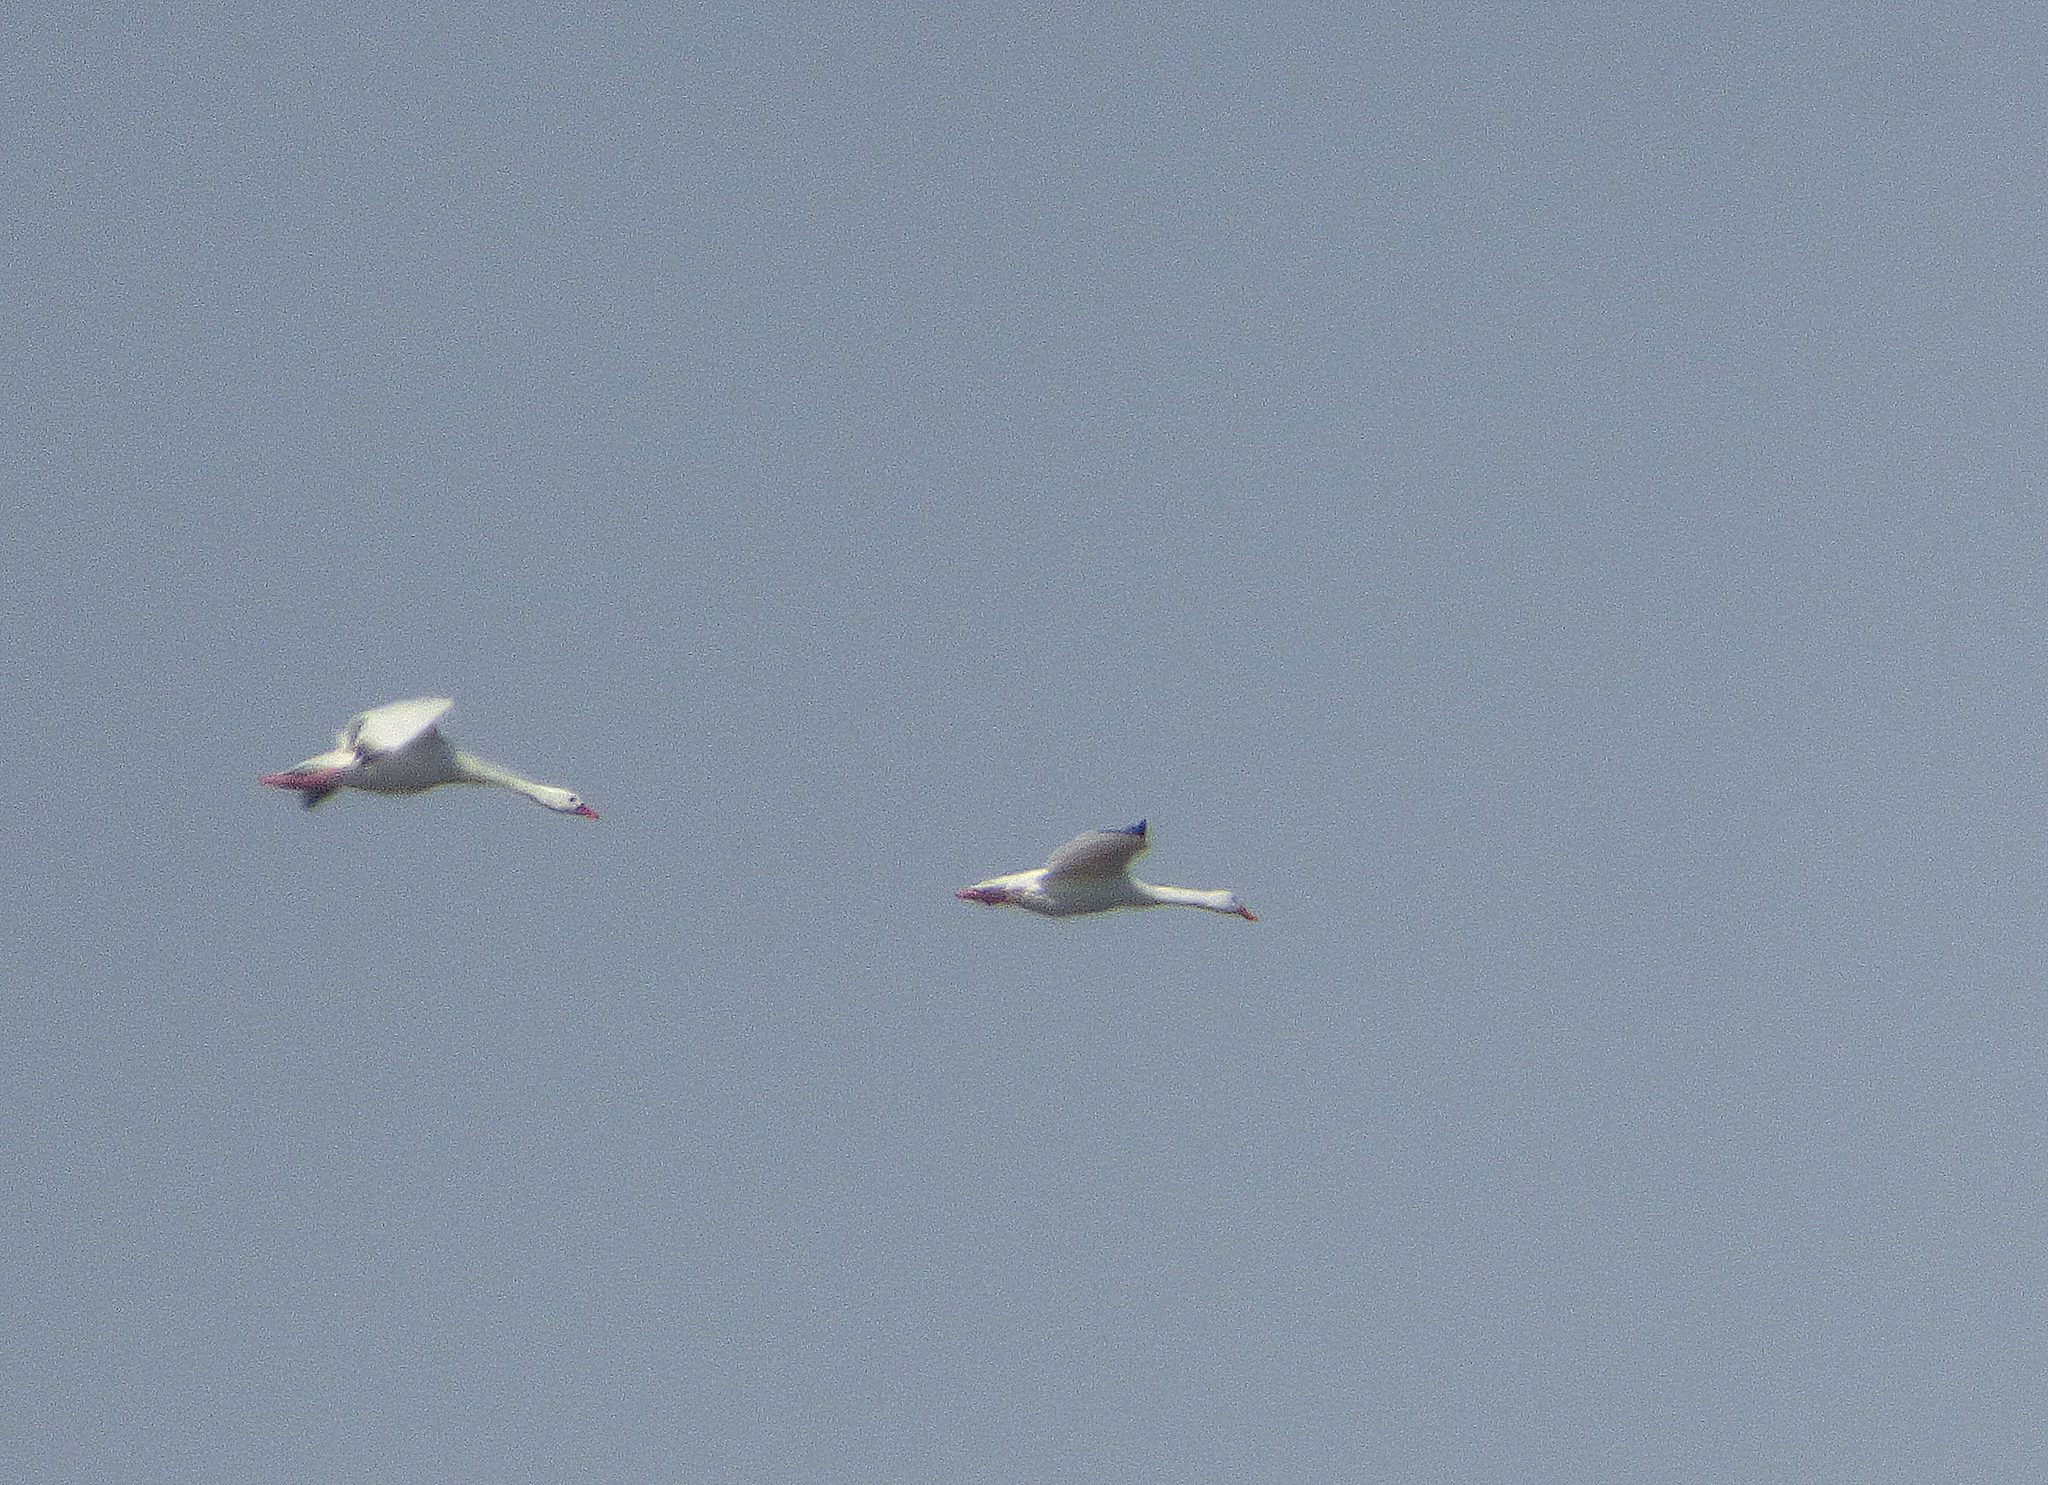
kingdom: Animalia
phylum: Chordata
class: Aves
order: Anseriformes
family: Anatidae
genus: Coscoroba
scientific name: Coscoroba coscoroba
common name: Coscoroba swan
